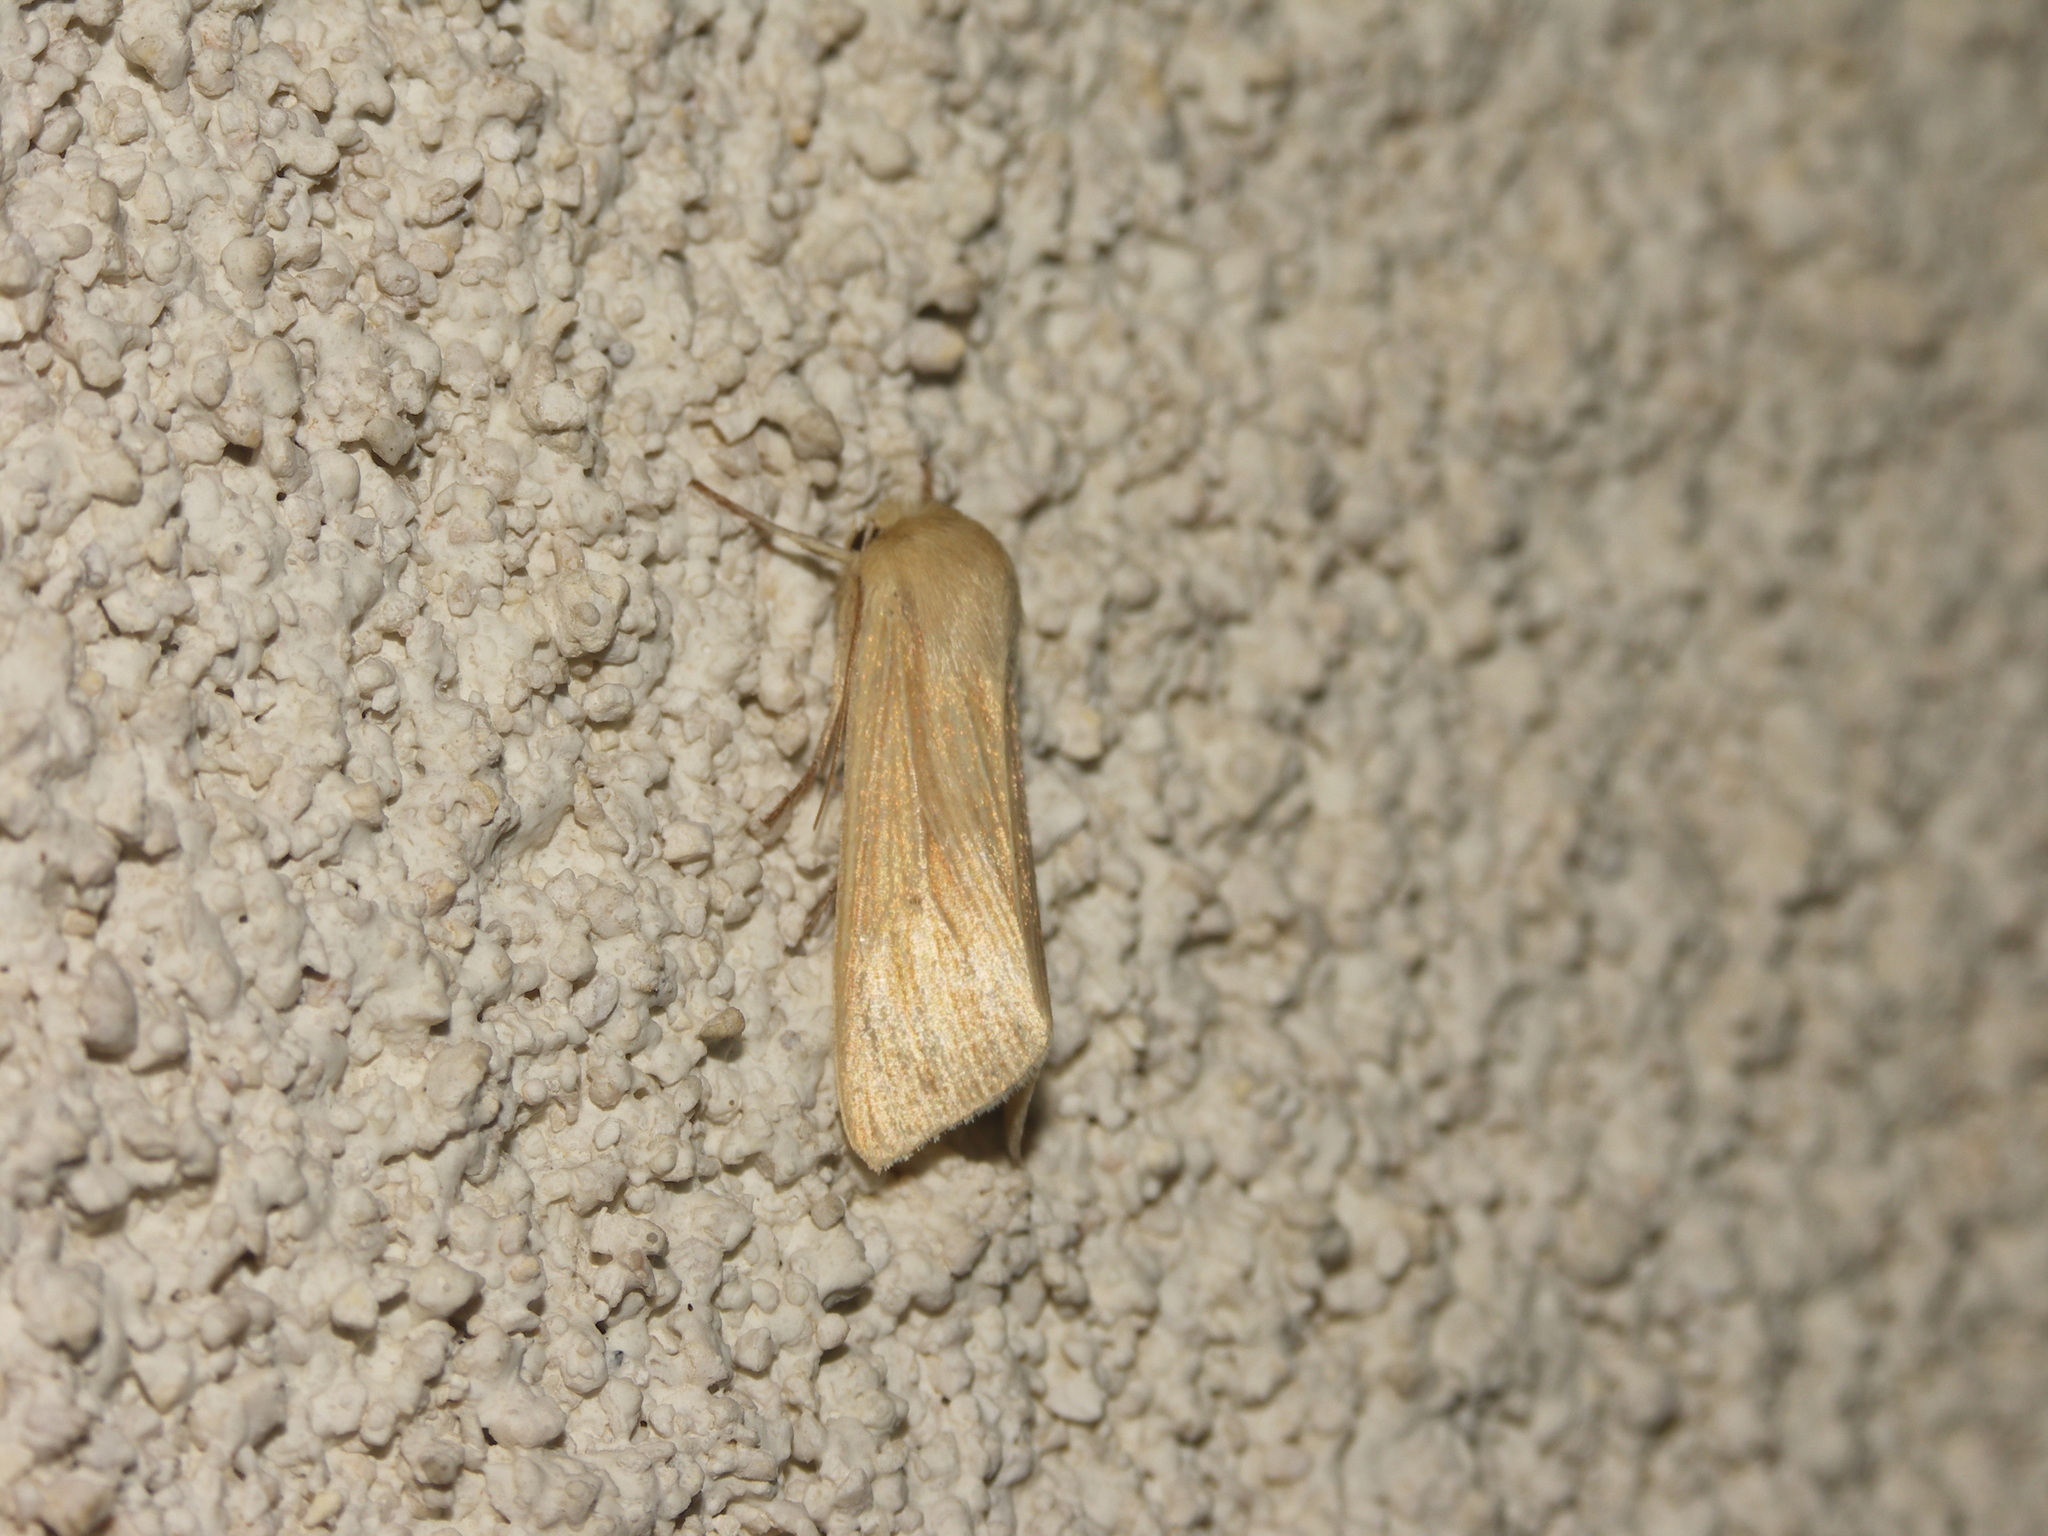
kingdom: Animalia
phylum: Arthropoda
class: Insecta
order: Lepidoptera
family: Noctuidae
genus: Mythimna
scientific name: Mythimna pallens
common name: Common wainscot
